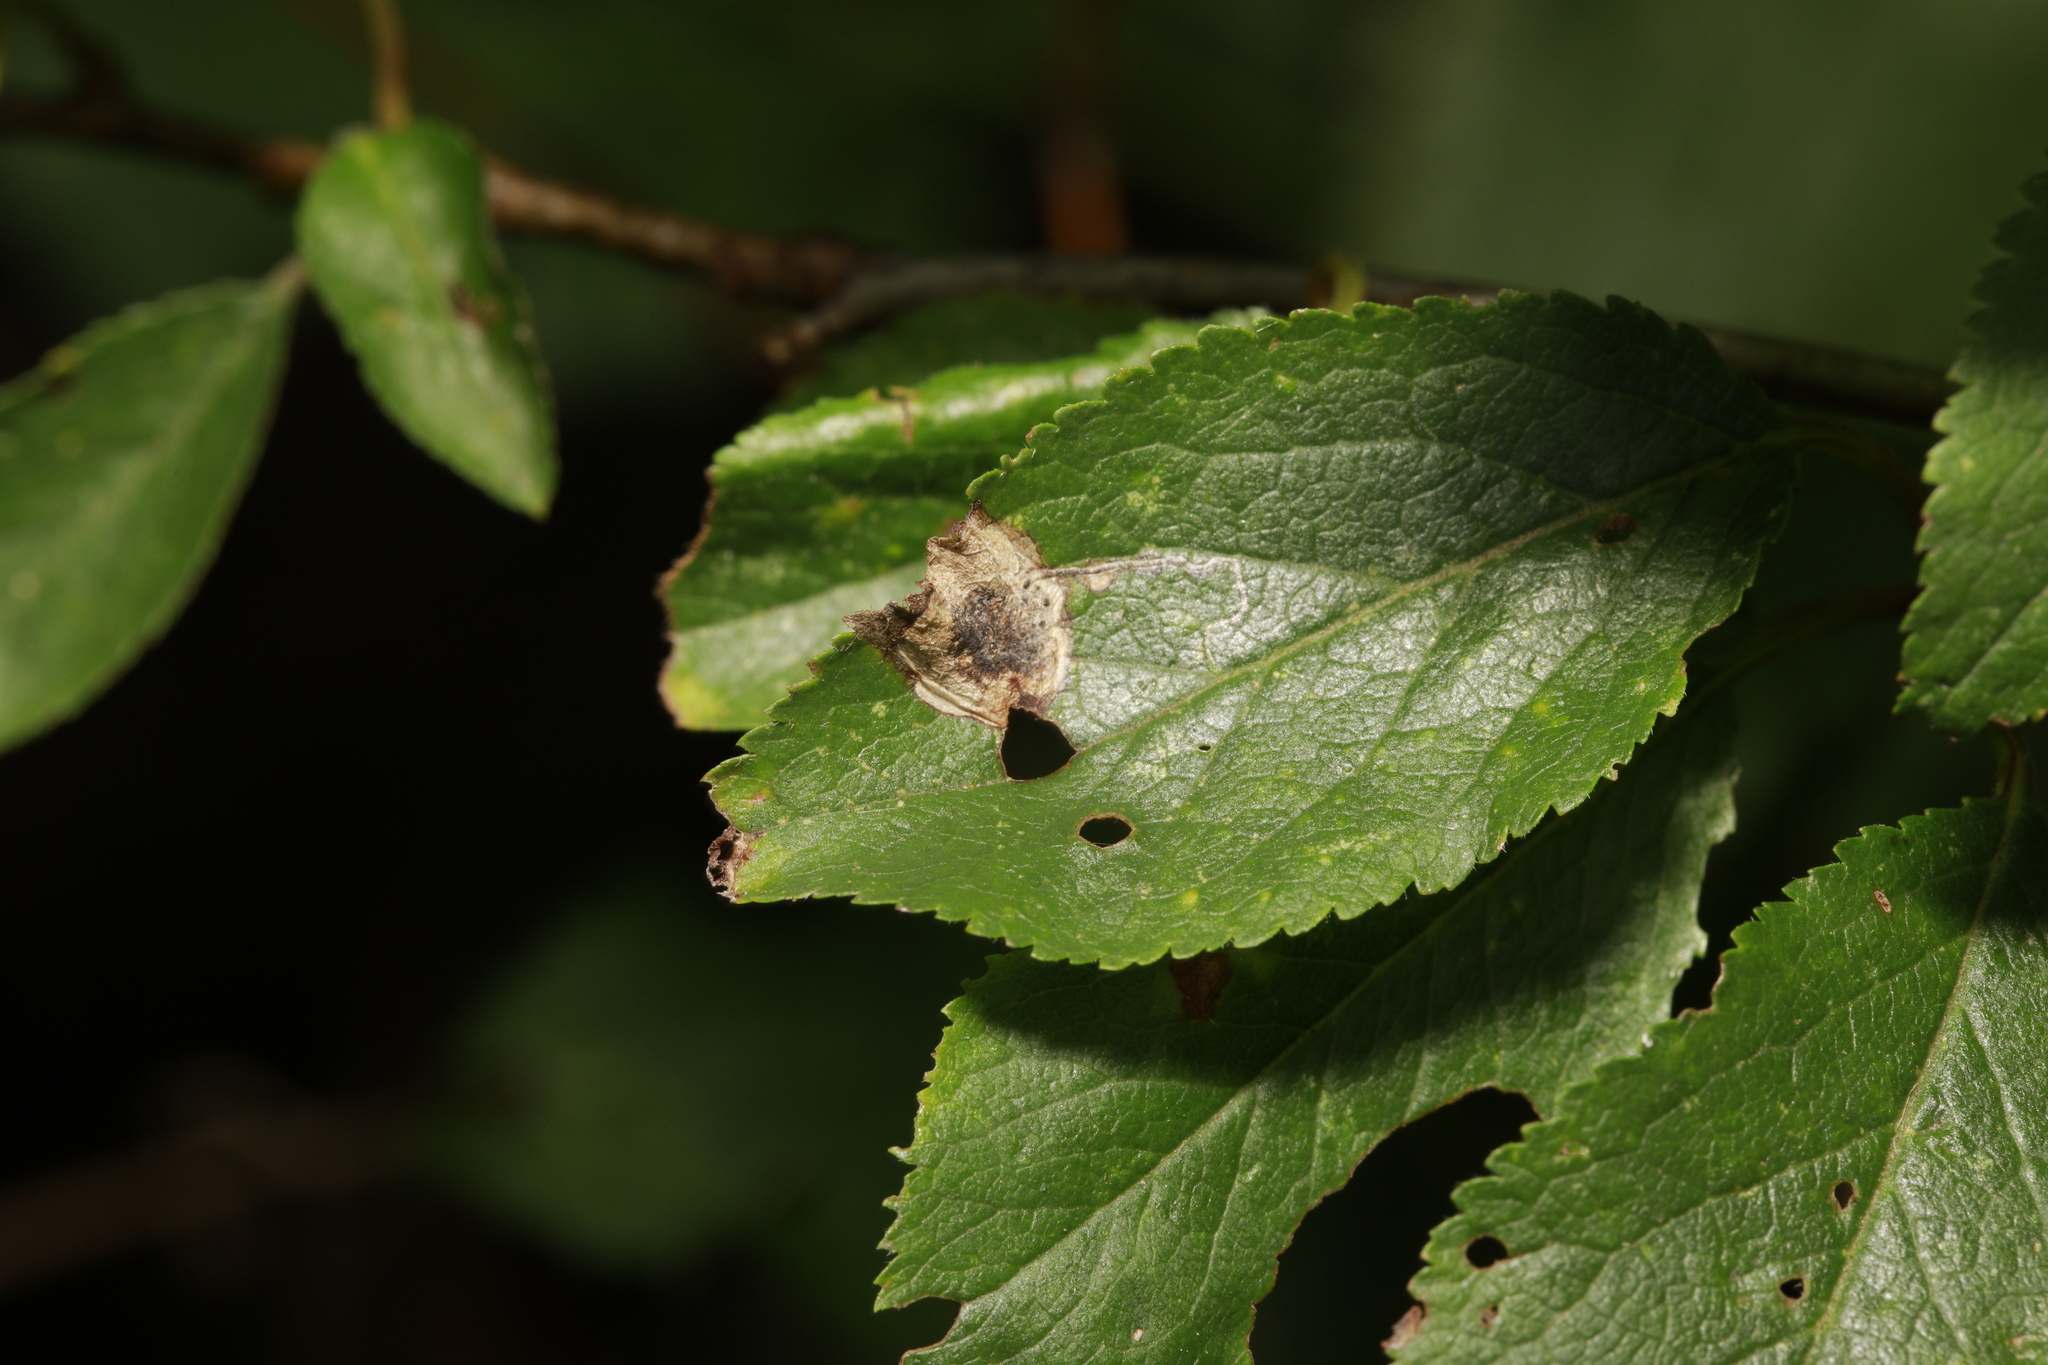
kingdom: Animalia
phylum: Arthropoda
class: Insecta
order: Lepidoptera
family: Nepticulidae
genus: Stigmella
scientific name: Stigmella plagicolella
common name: Scrubland pigmy
